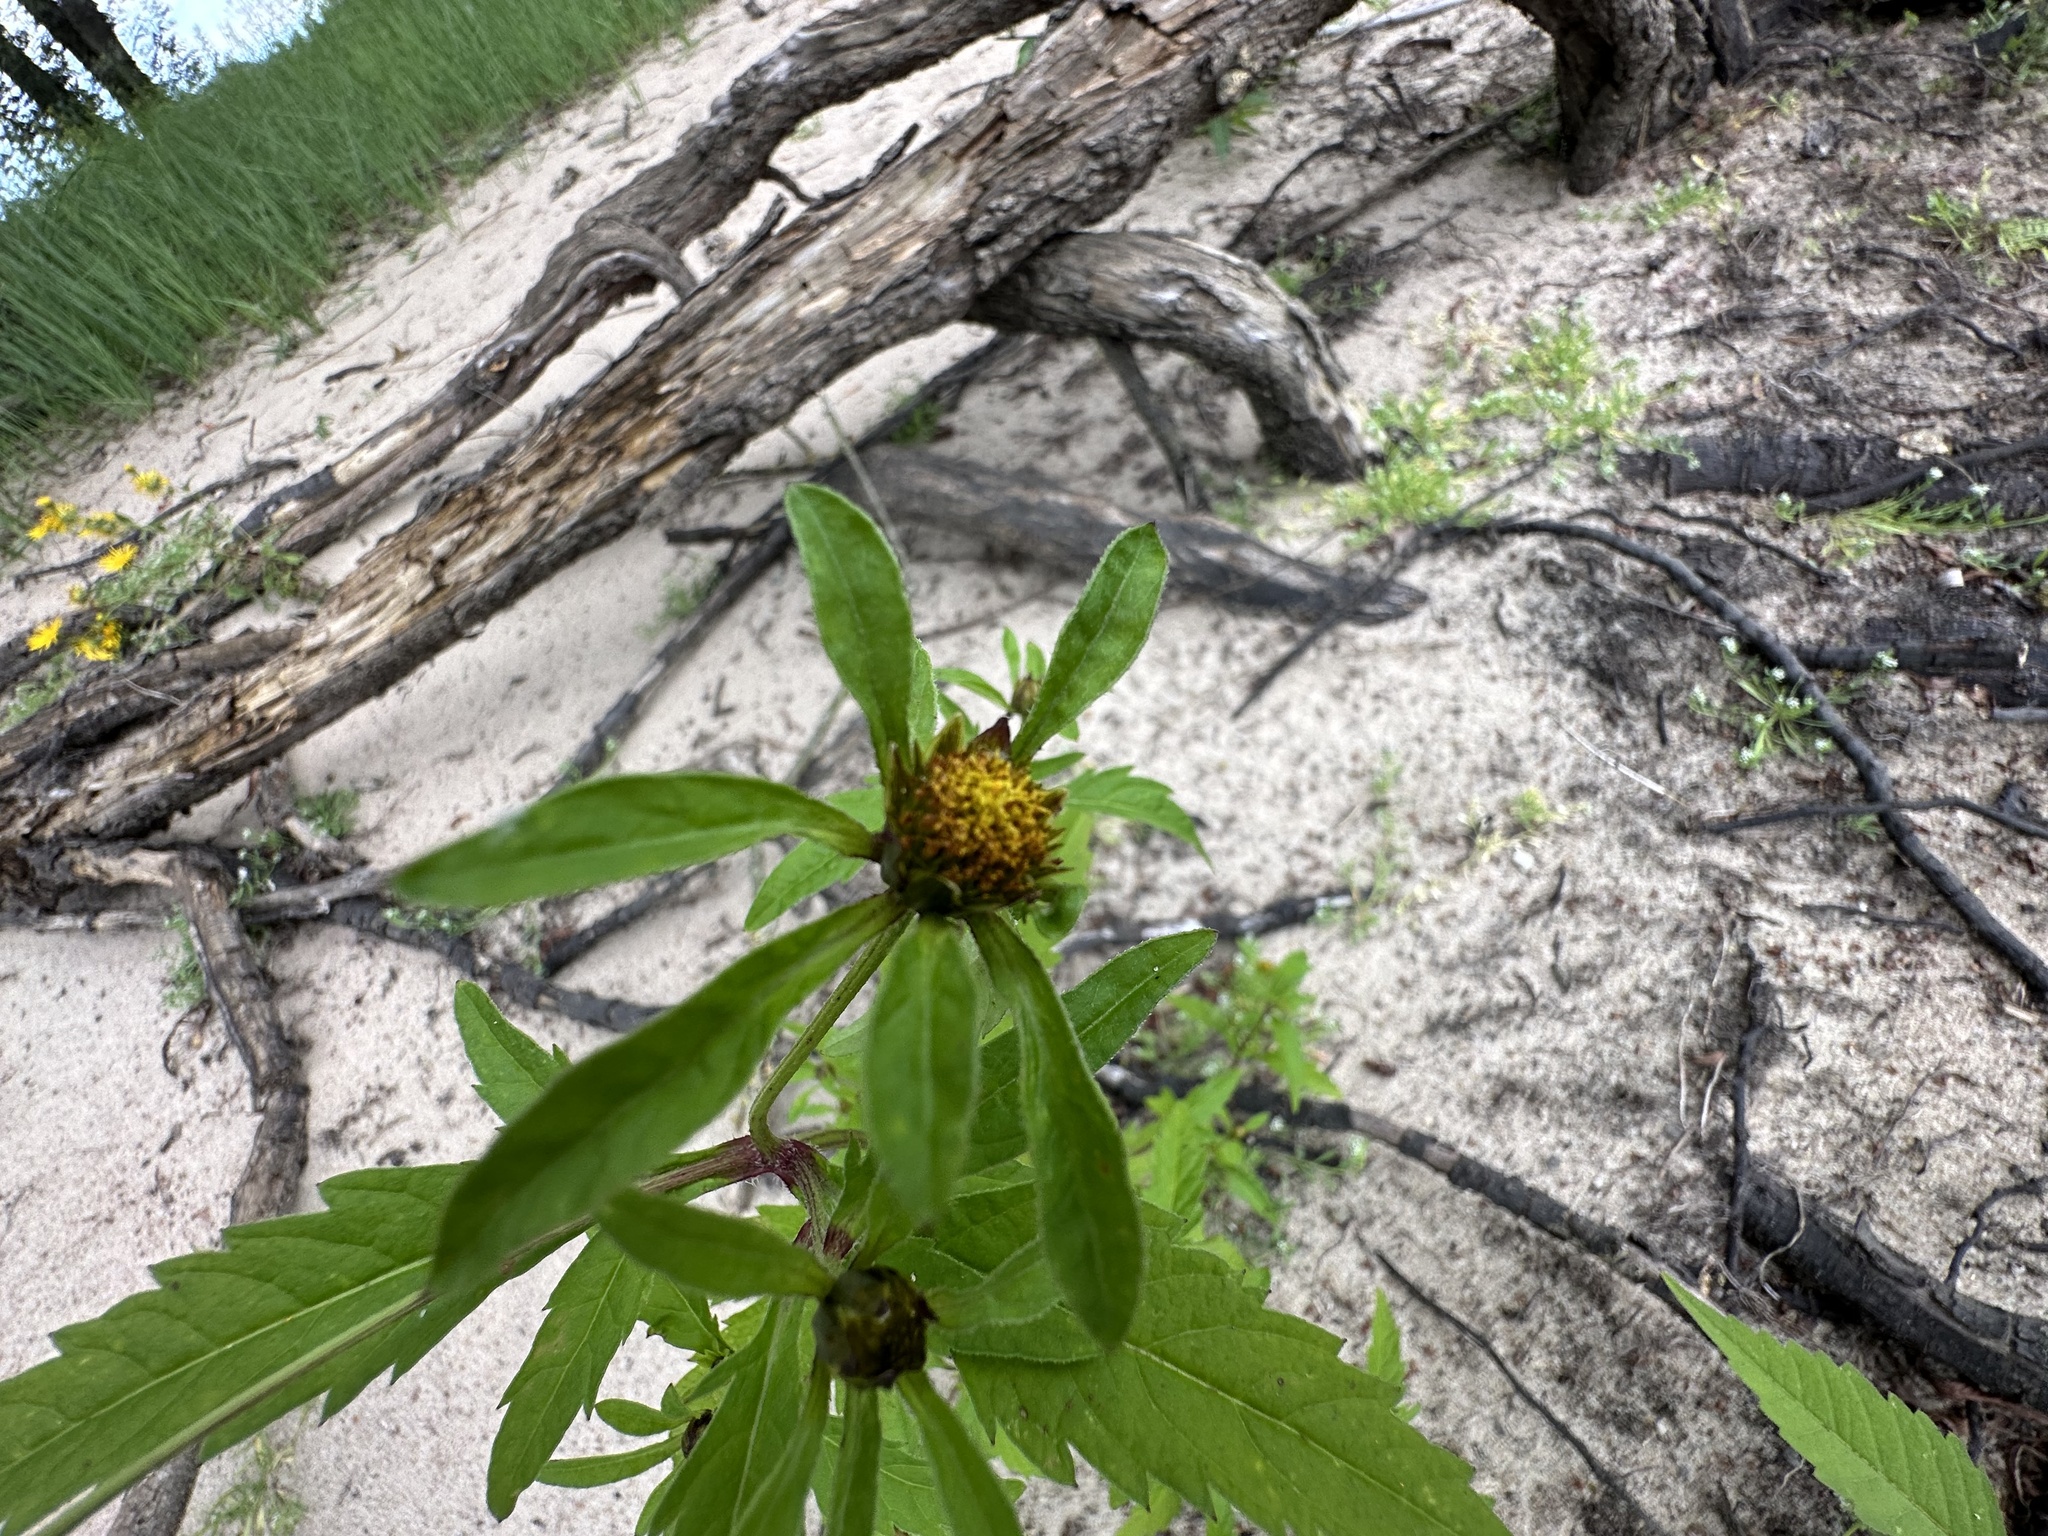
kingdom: Plantae
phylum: Tracheophyta
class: Magnoliopsida
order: Asterales
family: Asteraceae
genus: Bidens
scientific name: Bidens tripartita
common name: Trifid bur-marigold
